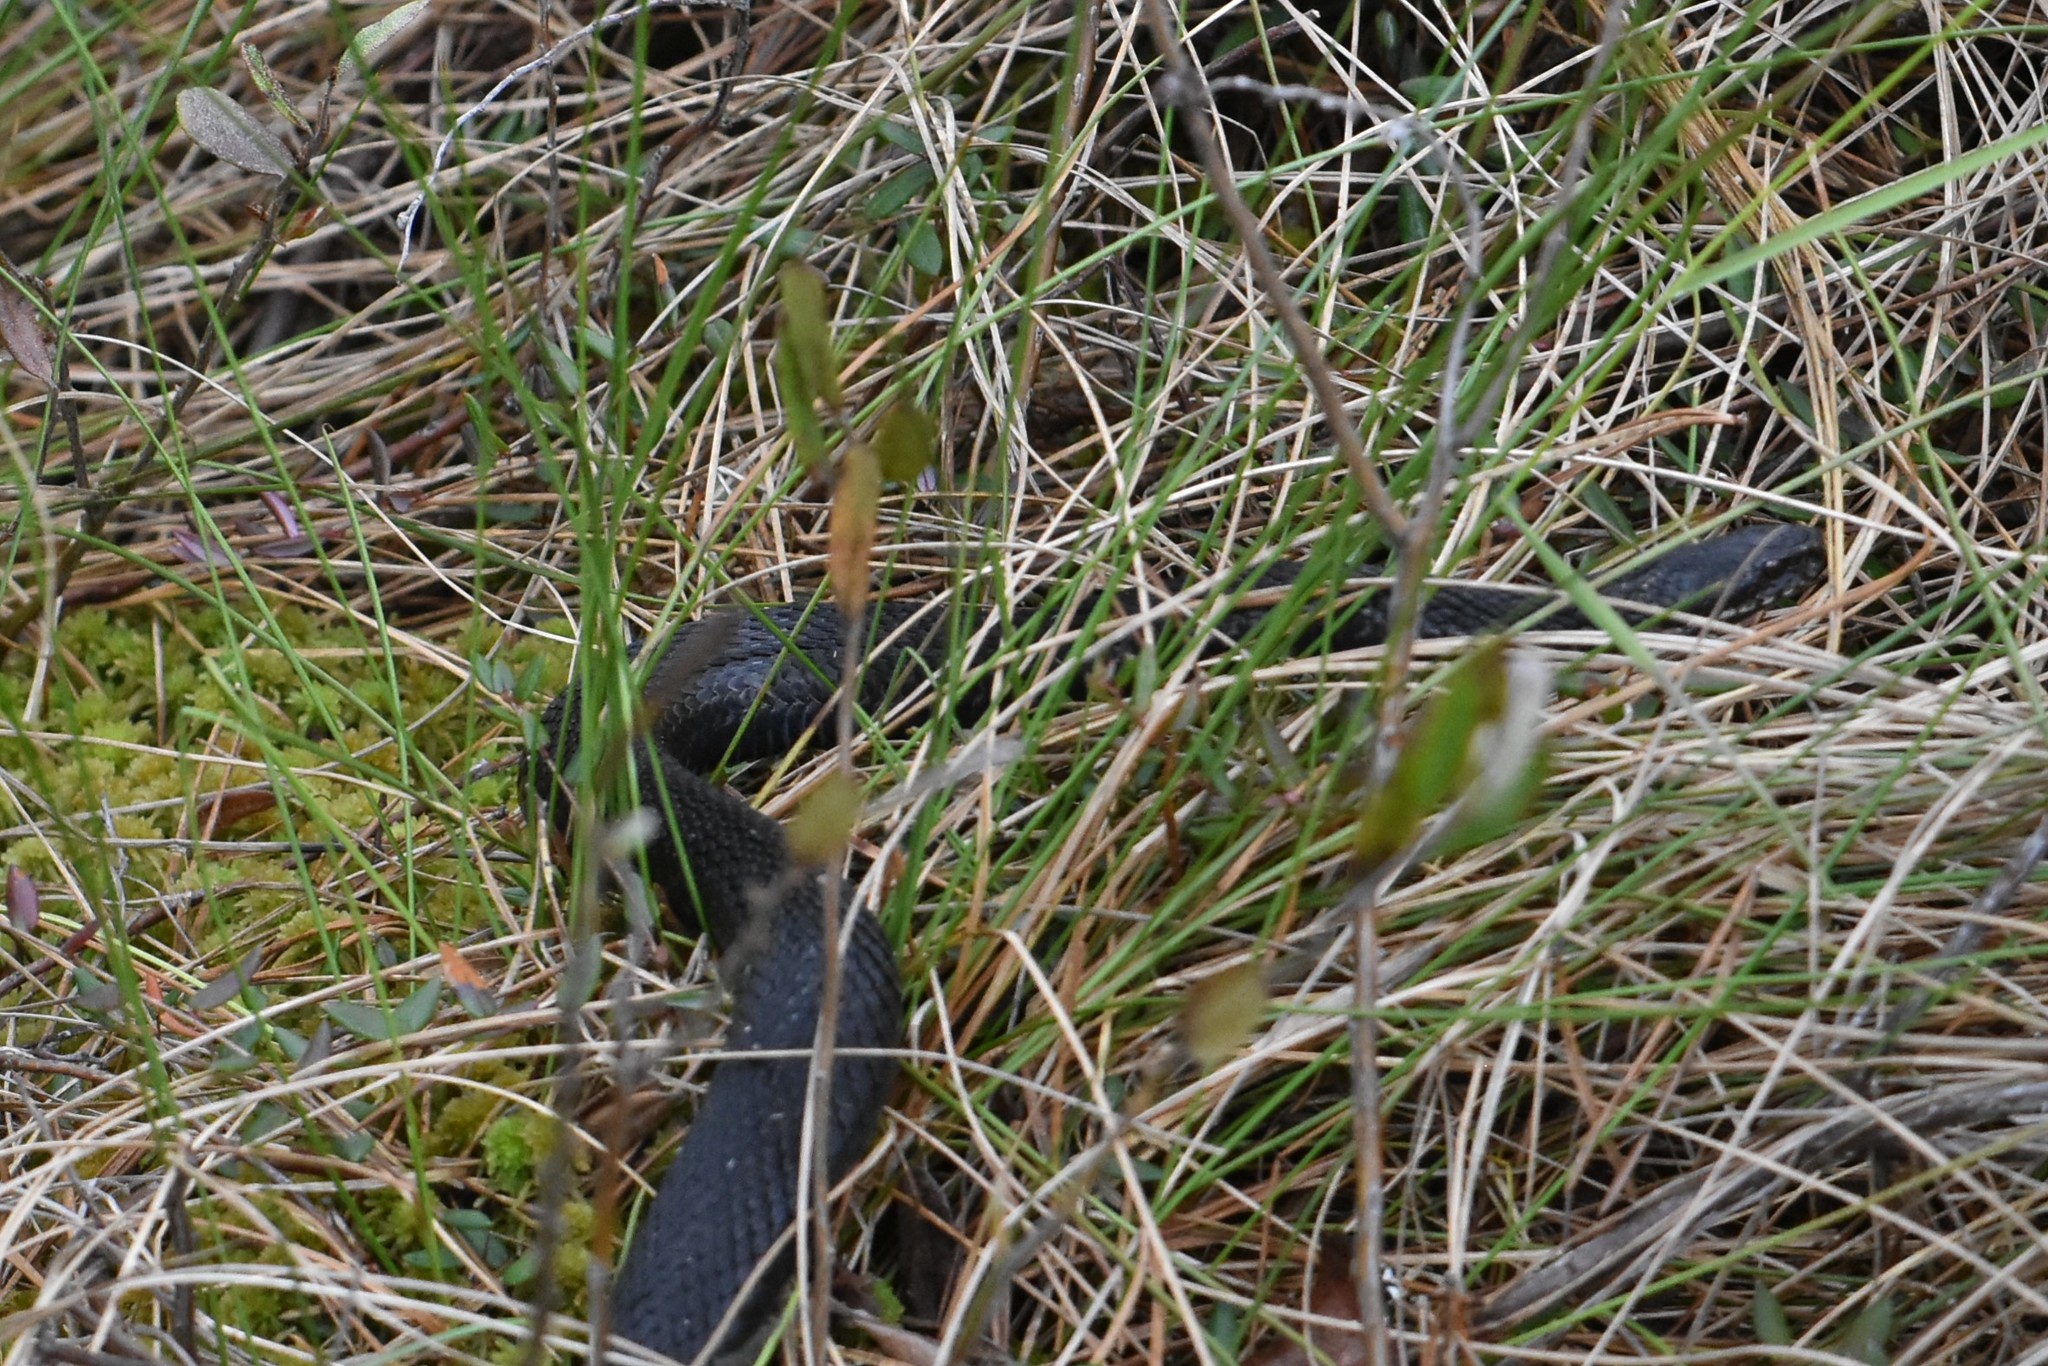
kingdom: Animalia
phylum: Chordata
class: Squamata
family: Viperidae
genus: Vipera
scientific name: Vipera berus
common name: Adder
